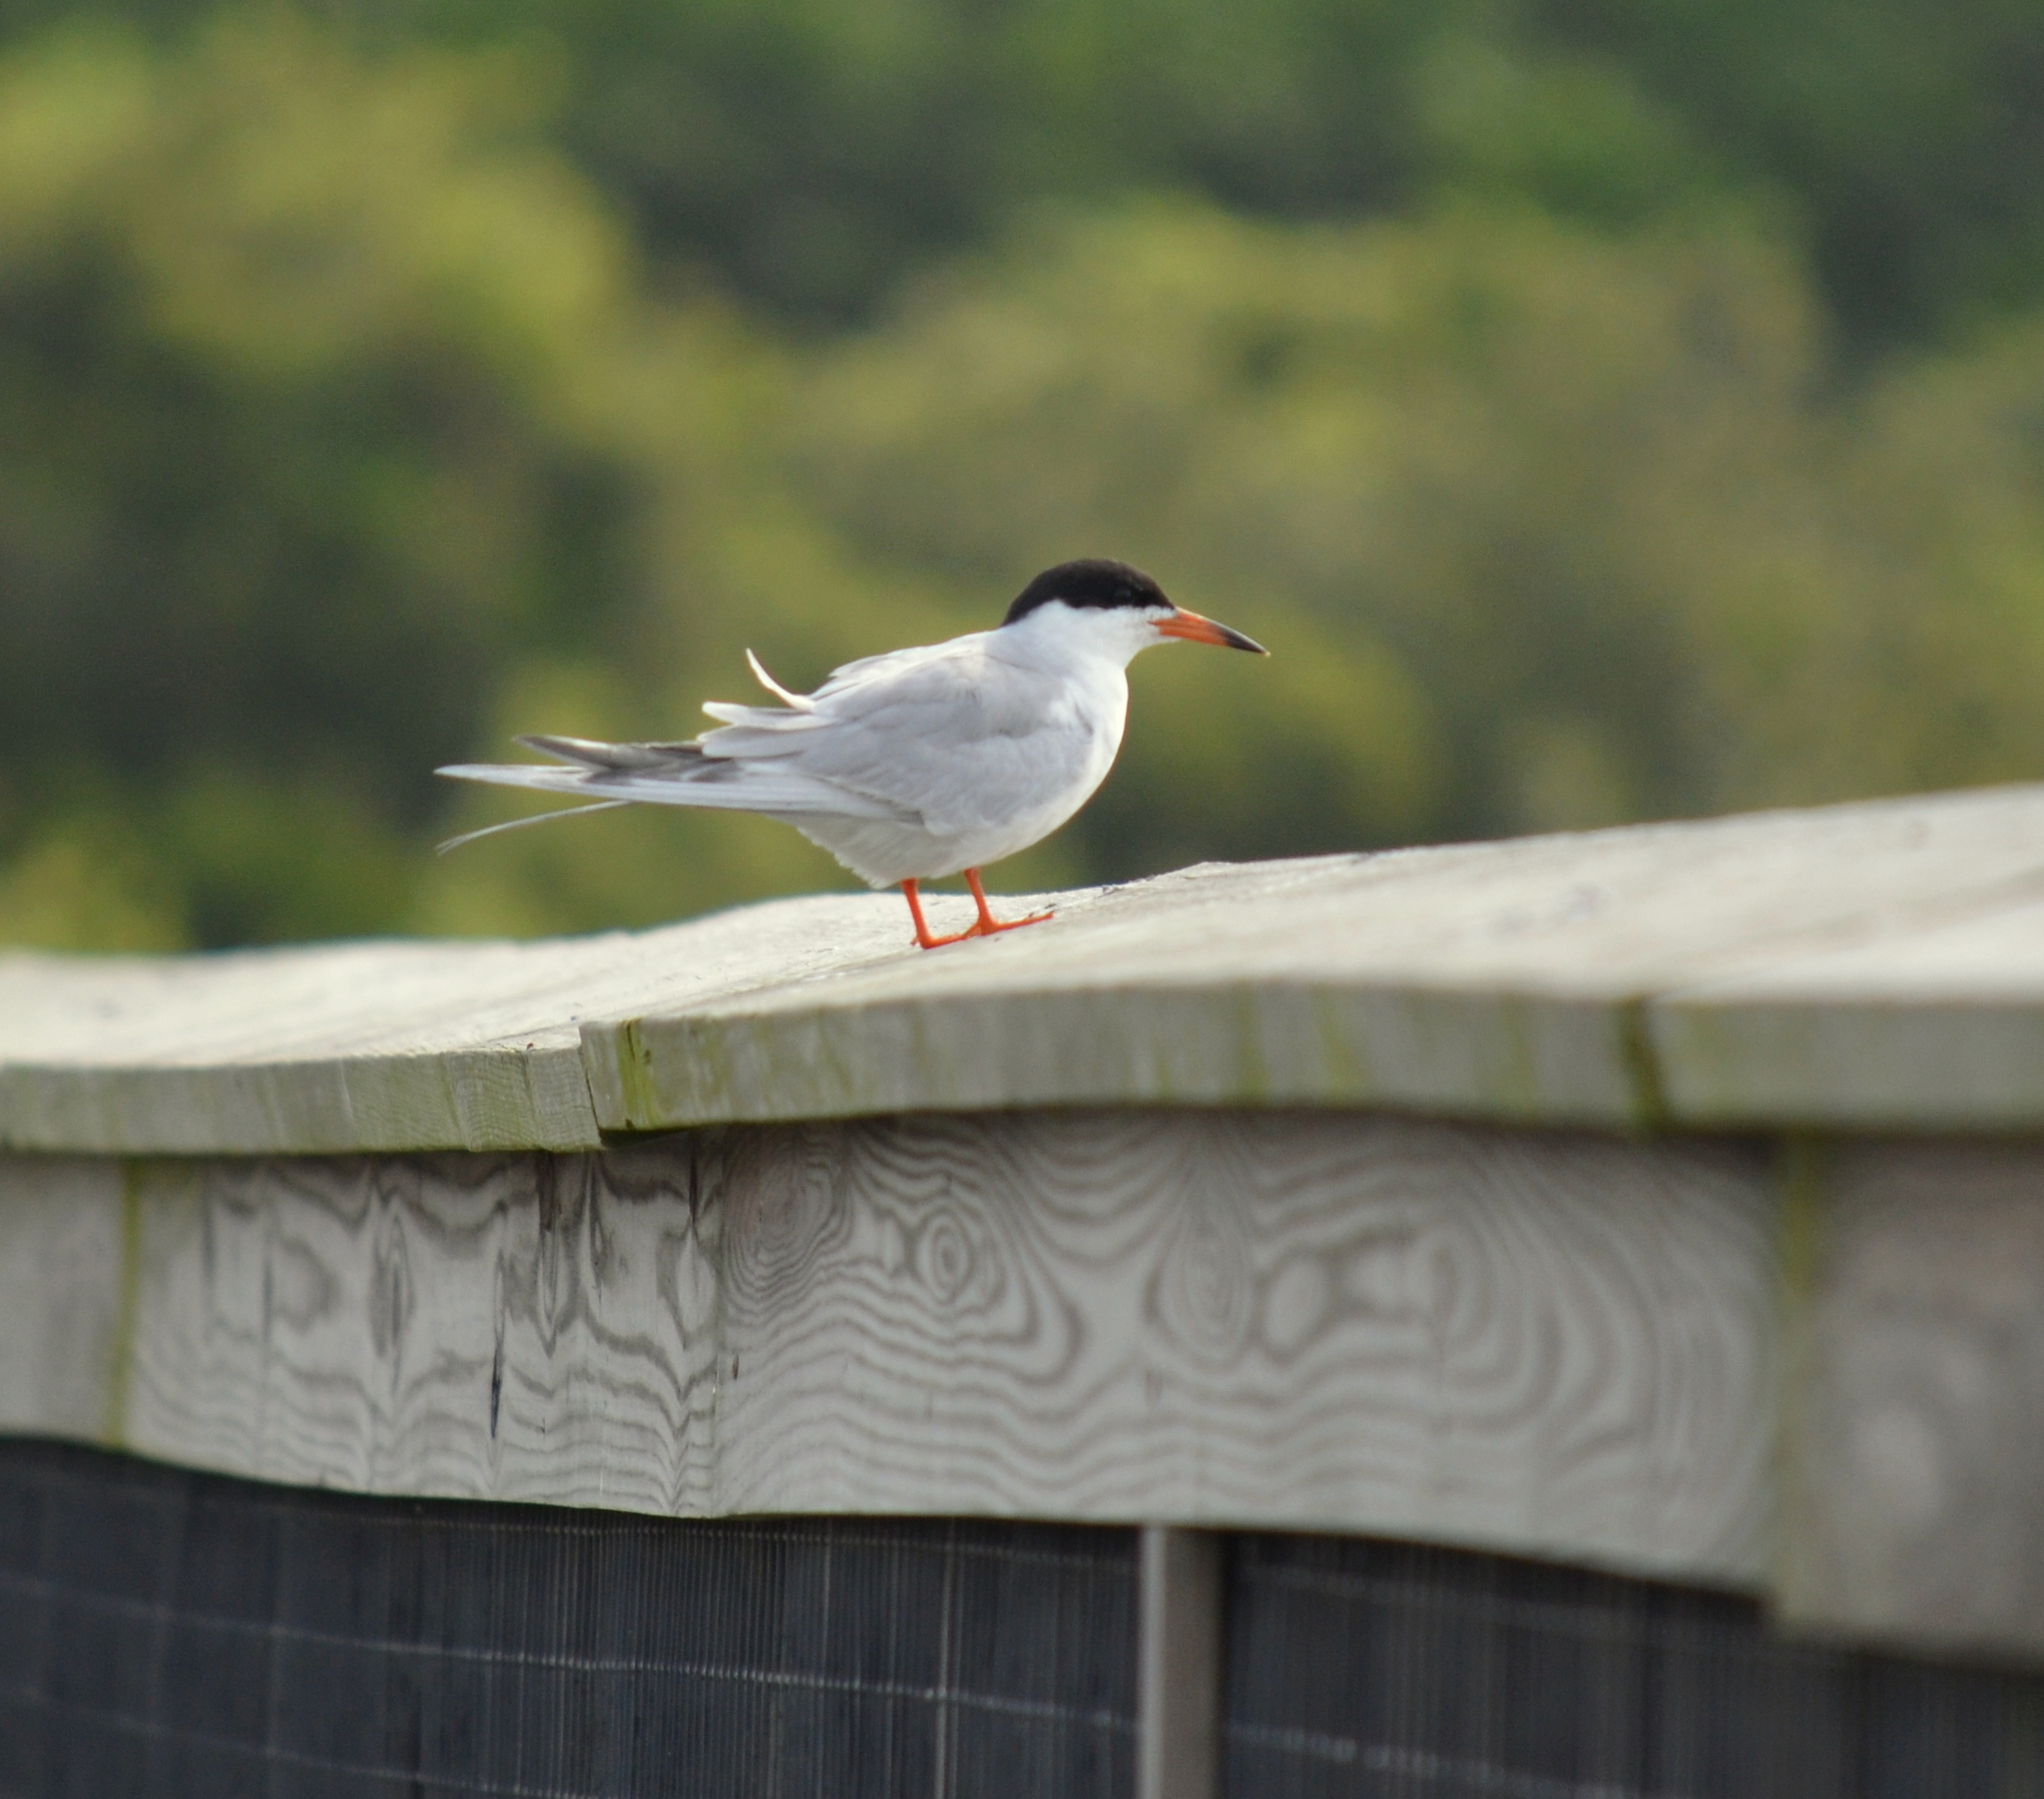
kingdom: Animalia
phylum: Chordata
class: Aves
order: Charadriiformes
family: Laridae
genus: Sterna
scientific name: Sterna forsteri
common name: Forster's tern
